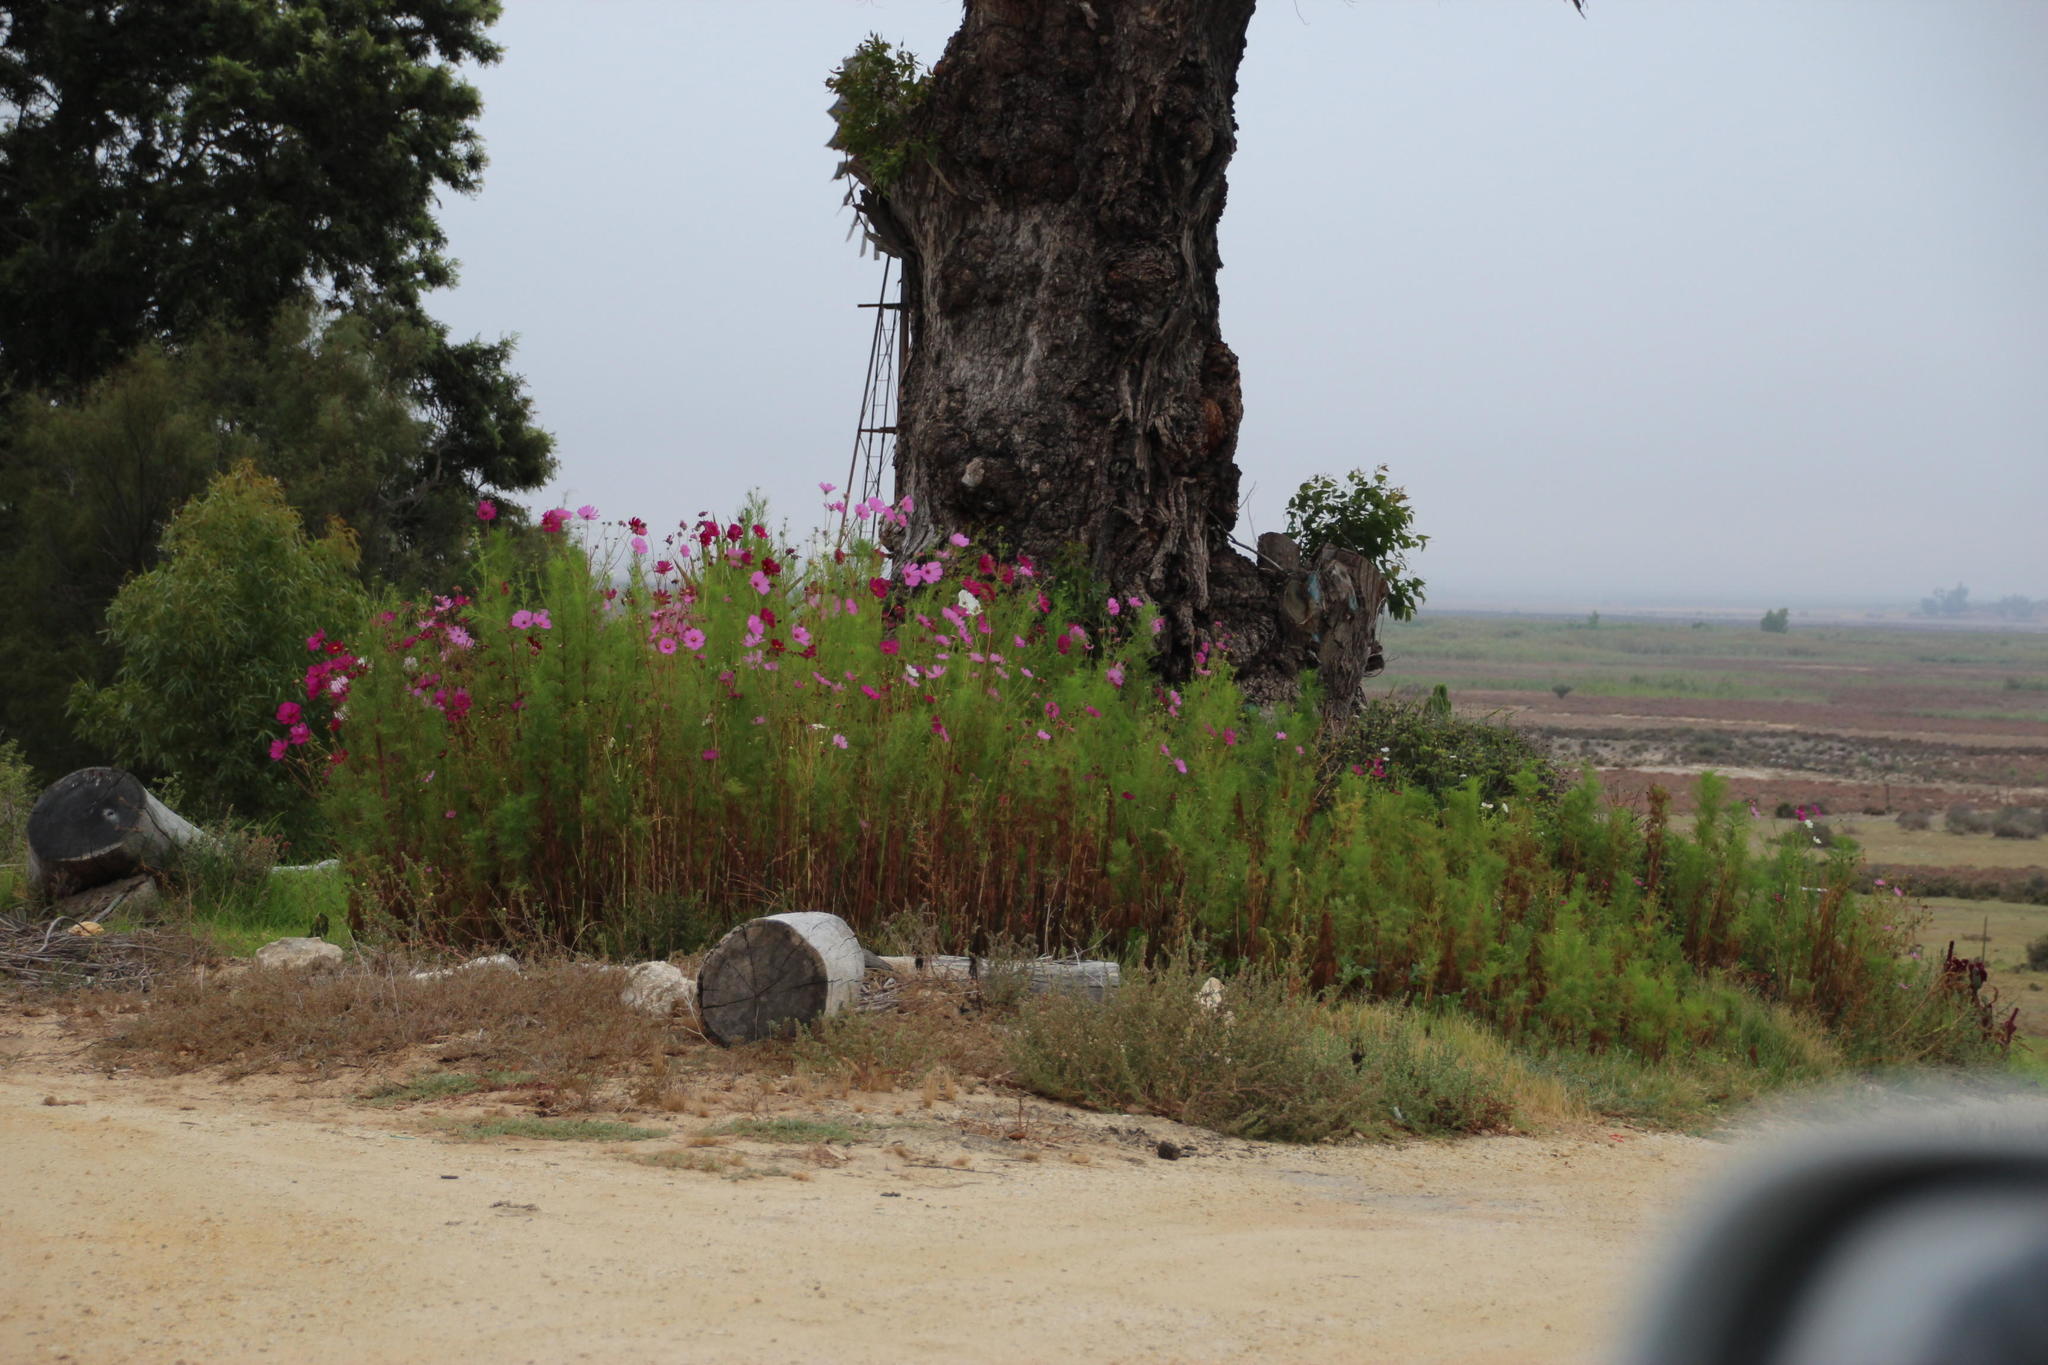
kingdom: Plantae
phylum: Tracheophyta
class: Magnoliopsida
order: Asterales
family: Asteraceae
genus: Cosmos
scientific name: Cosmos bipinnatus
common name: Garden cosmos
